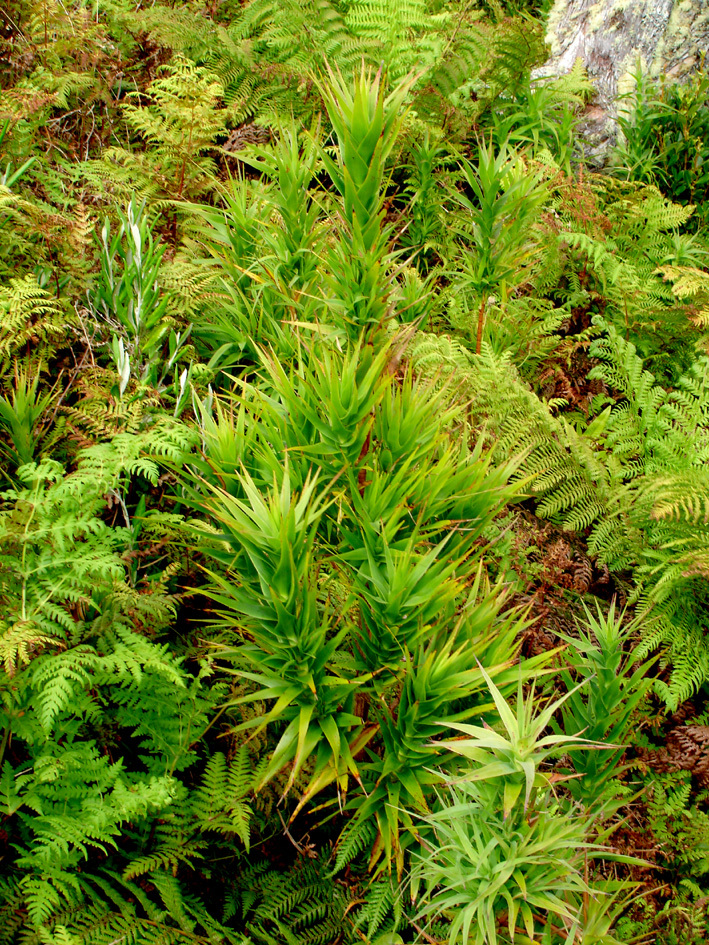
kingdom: Plantae
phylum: Tracheophyta
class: Magnoliopsida
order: Ericales
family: Ericaceae
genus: Dracophyllum
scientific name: Dracophyllum arboreum
